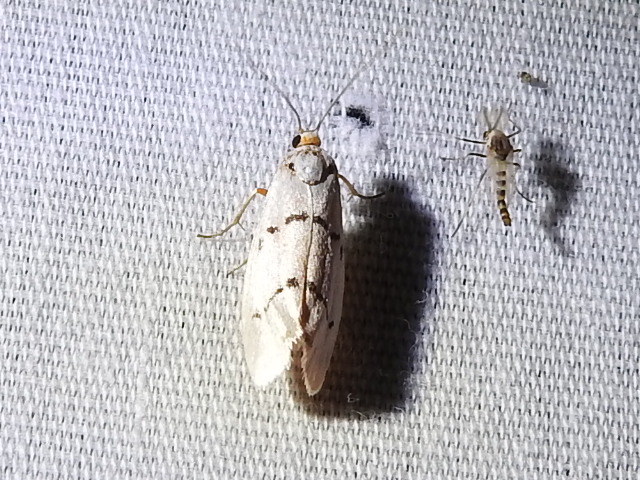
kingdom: Animalia
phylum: Arthropoda
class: Insecta
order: Lepidoptera
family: Lacturidae
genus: Lactura
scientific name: Lactura
